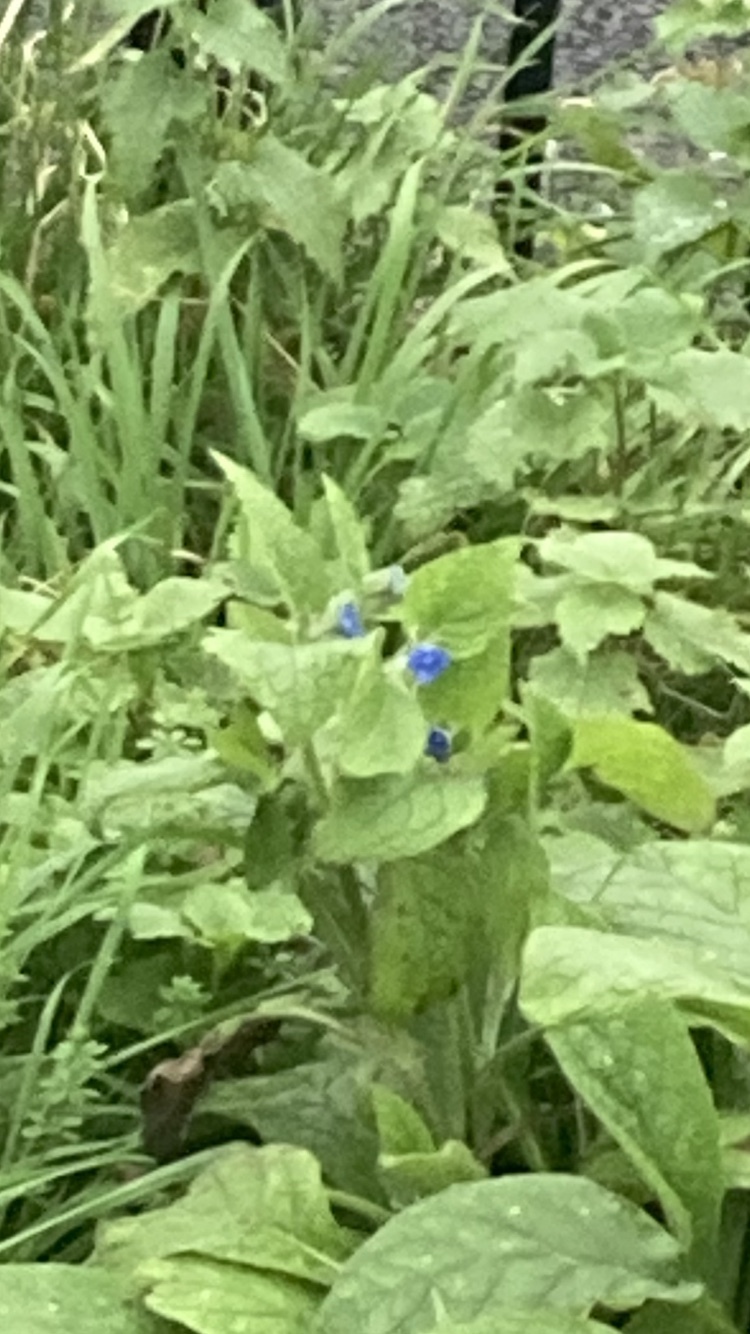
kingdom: Plantae
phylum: Tracheophyta
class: Magnoliopsida
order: Boraginales
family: Boraginaceae
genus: Pentaglottis
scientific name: Pentaglottis sempervirens
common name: Green alkanet
